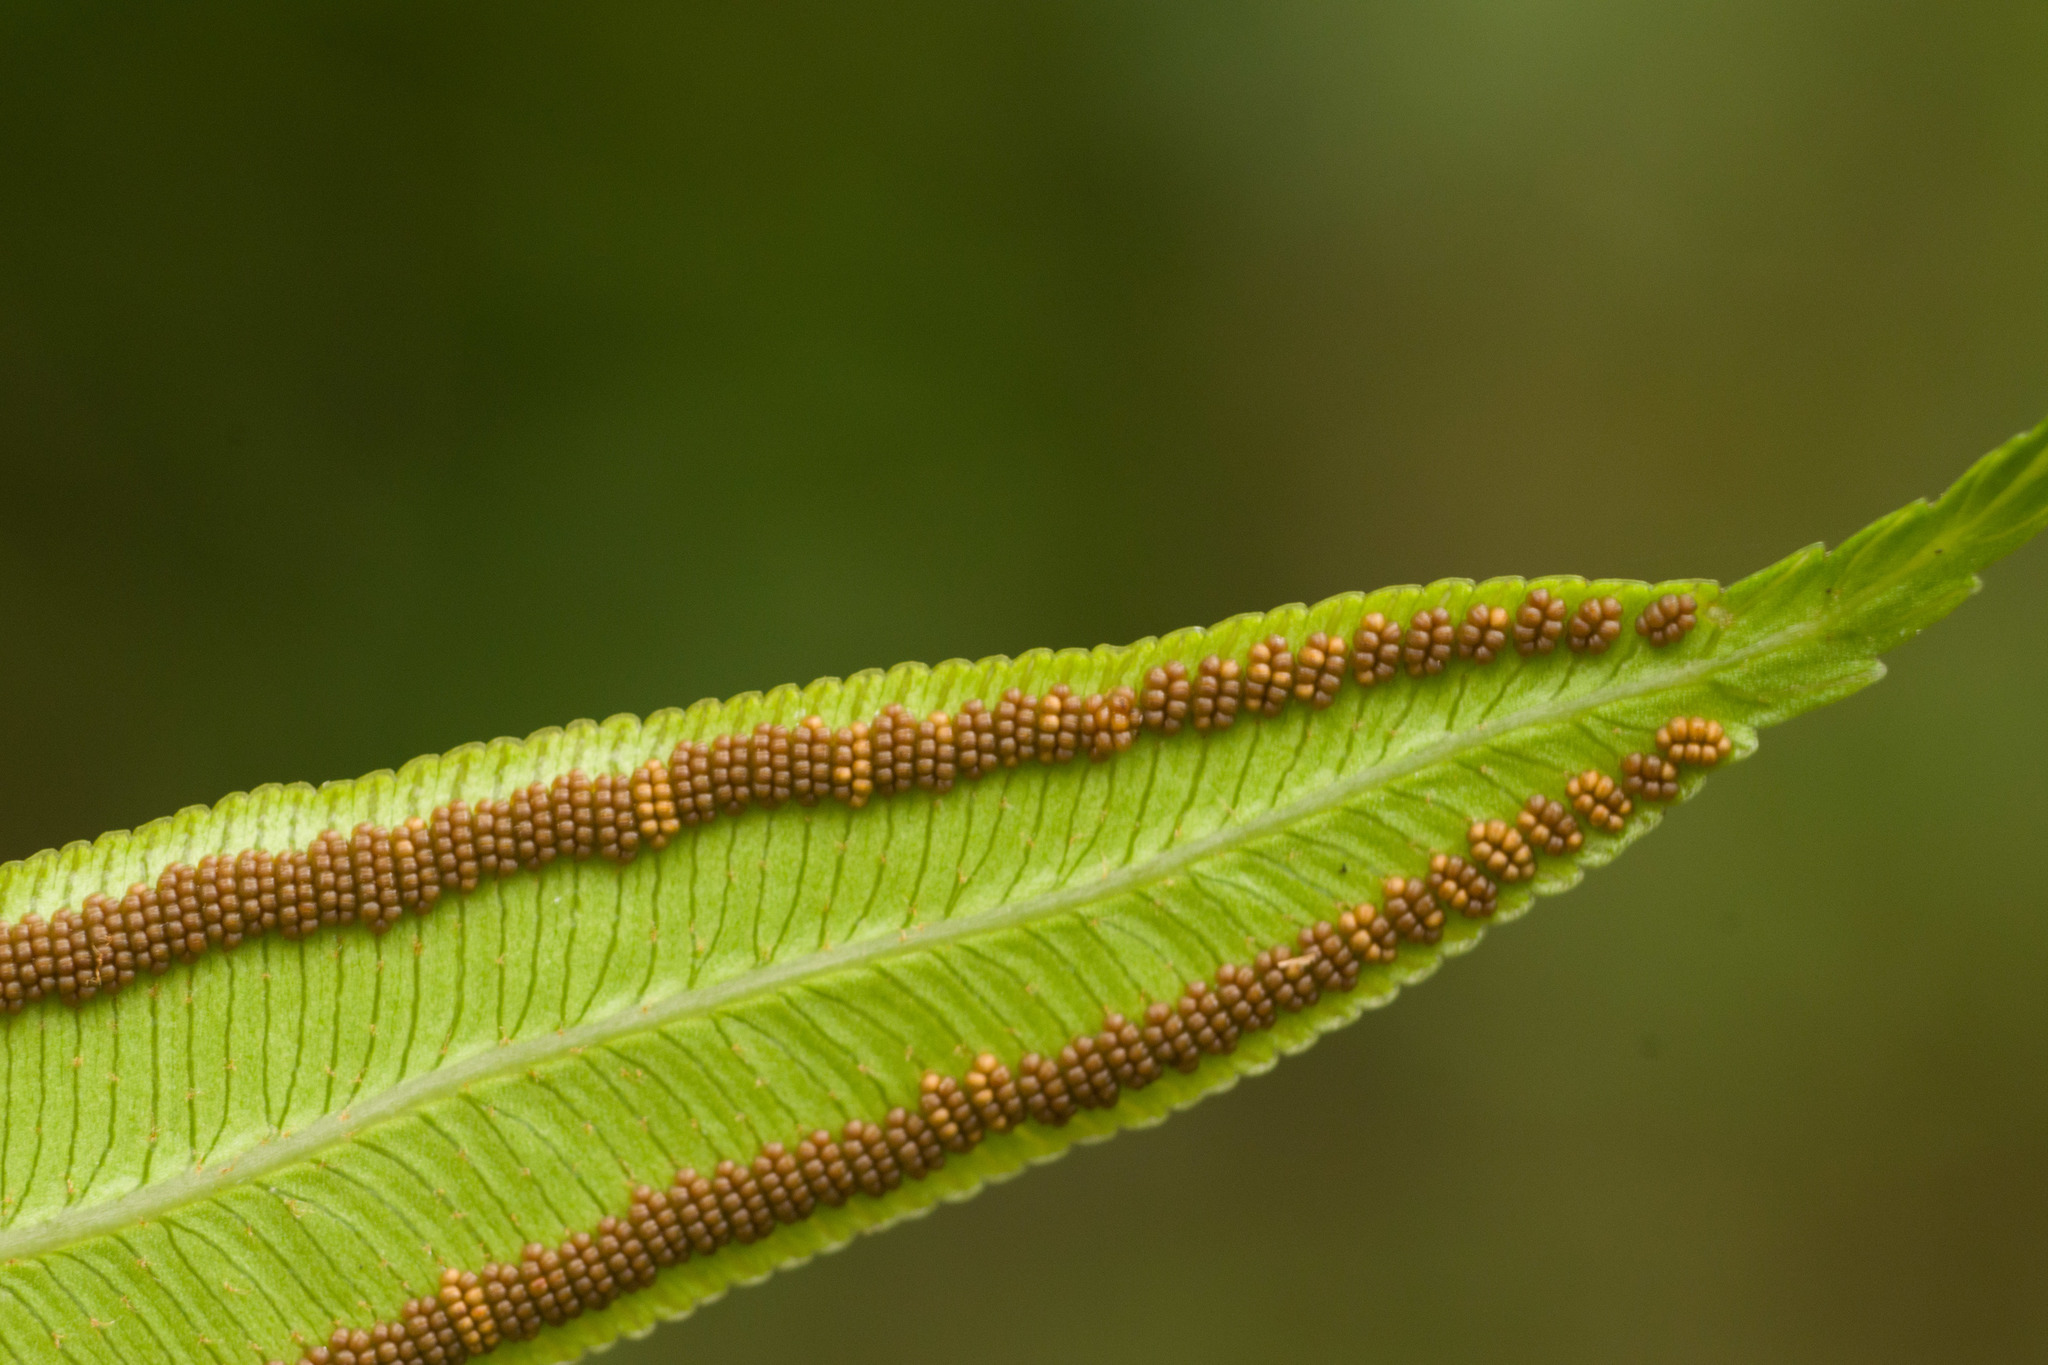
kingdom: Plantae
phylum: Tracheophyta
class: Polypodiopsida
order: Marattiales
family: Marattiaceae
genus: Angiopteris
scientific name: Angiopteris evecta
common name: Mule's-foot fern
